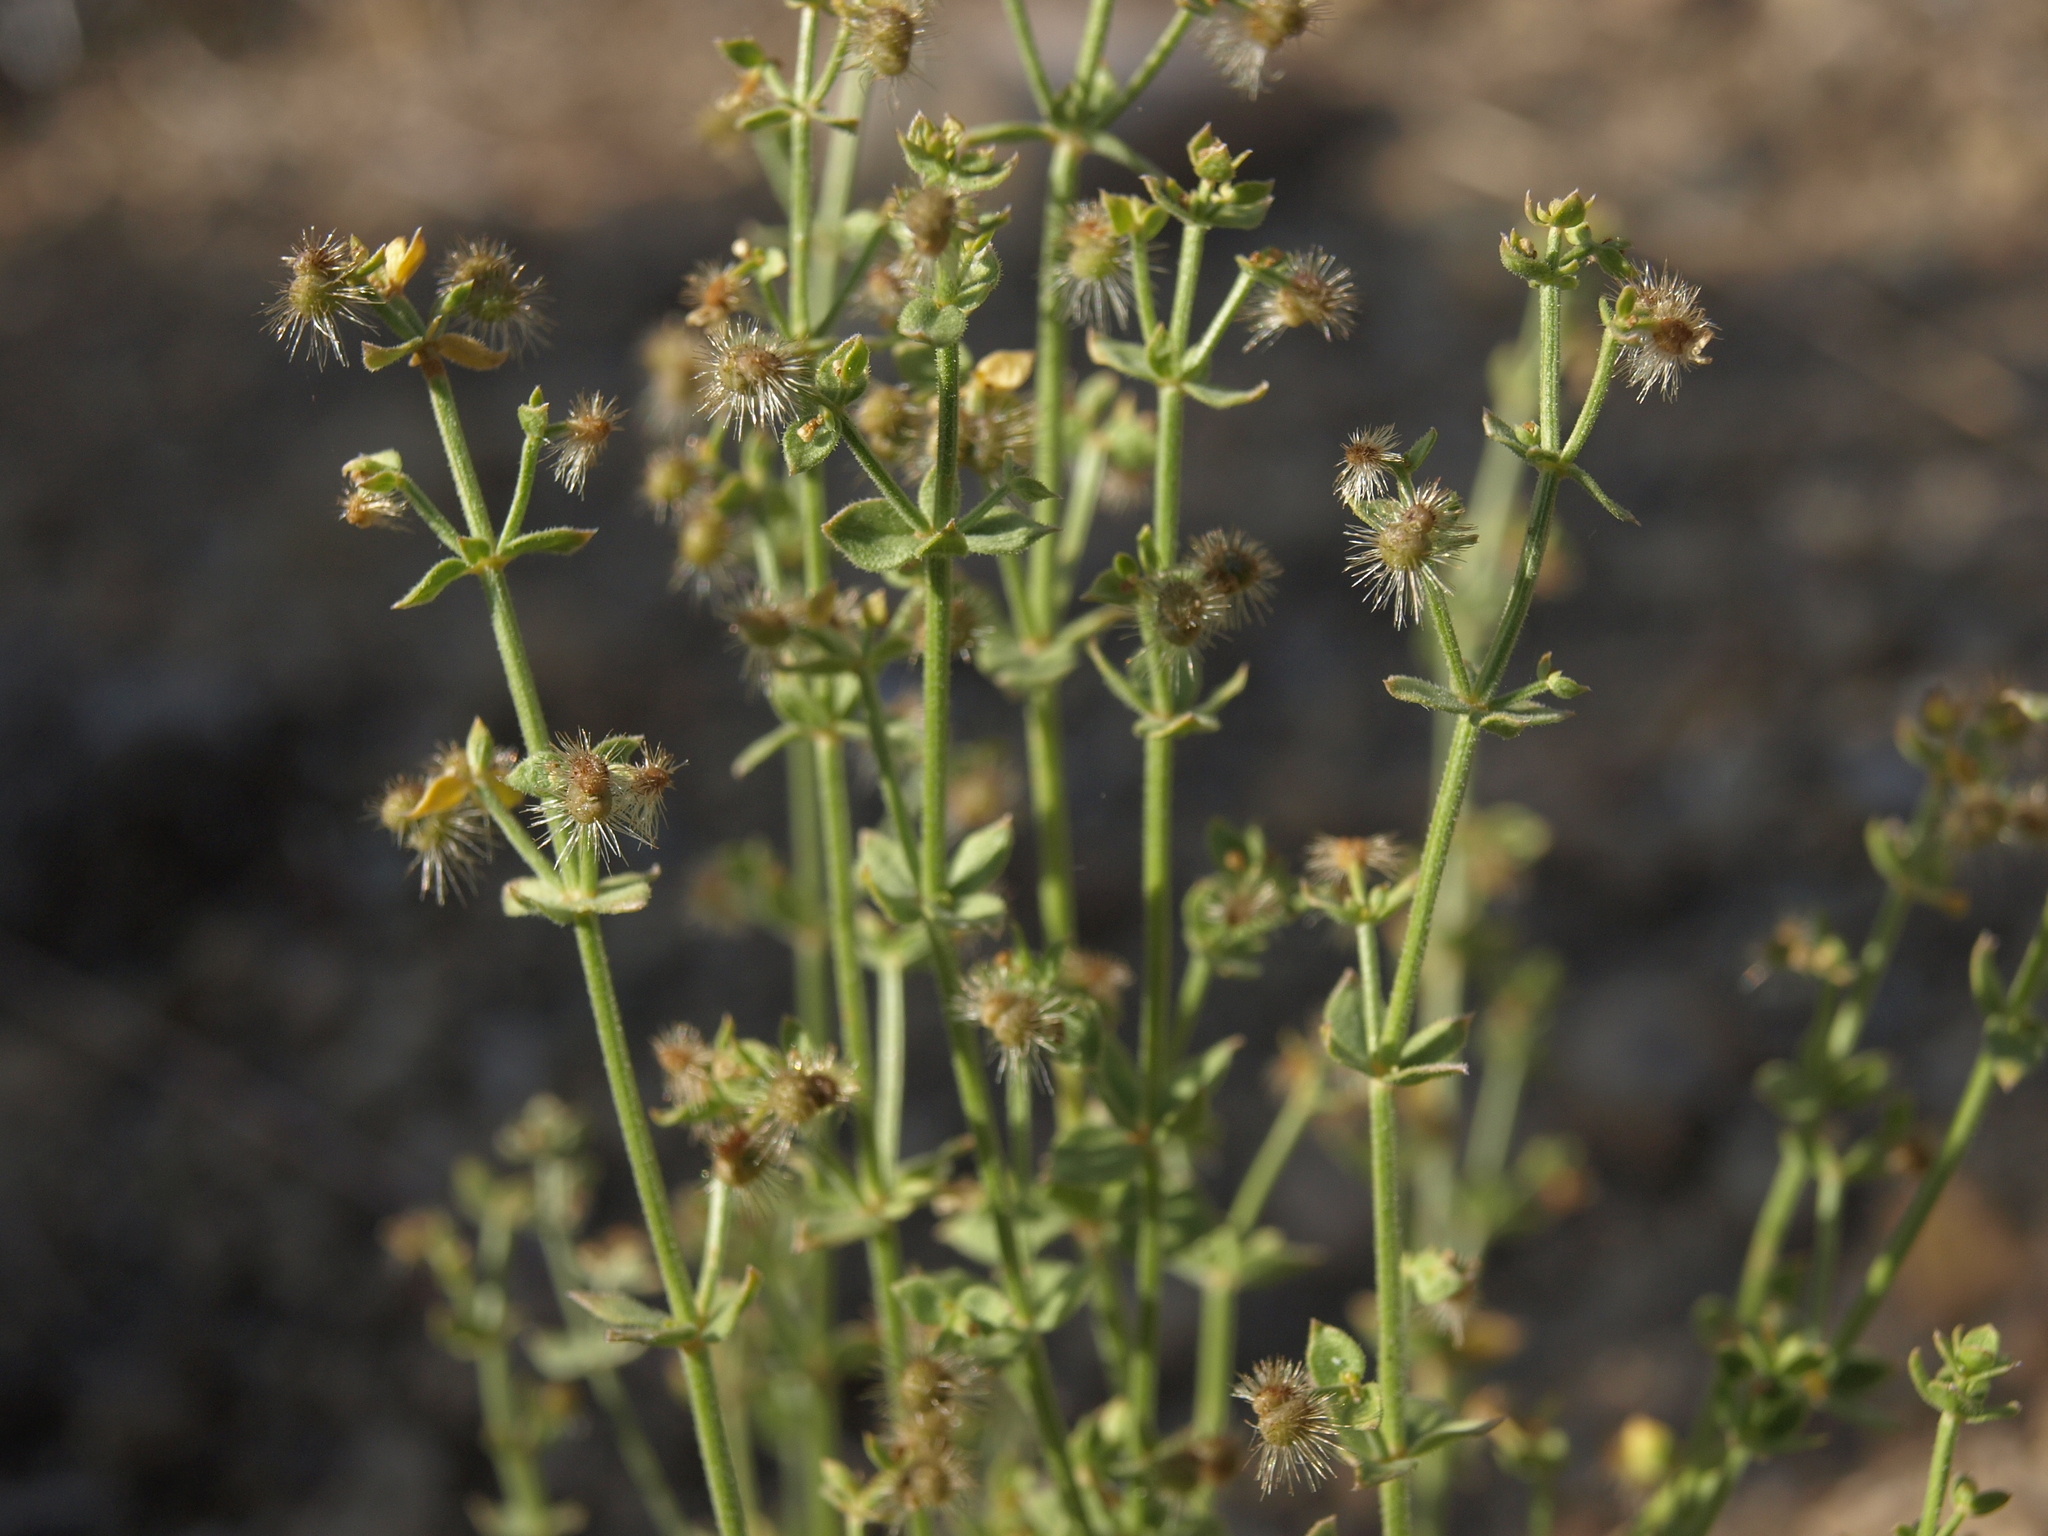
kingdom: Plantae
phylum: Tracheophyta
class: Magnoliopsida
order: Gentianales
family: Rubiaceae
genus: Galium
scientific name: Galium multiflorum
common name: Many-flowered bedstraw
